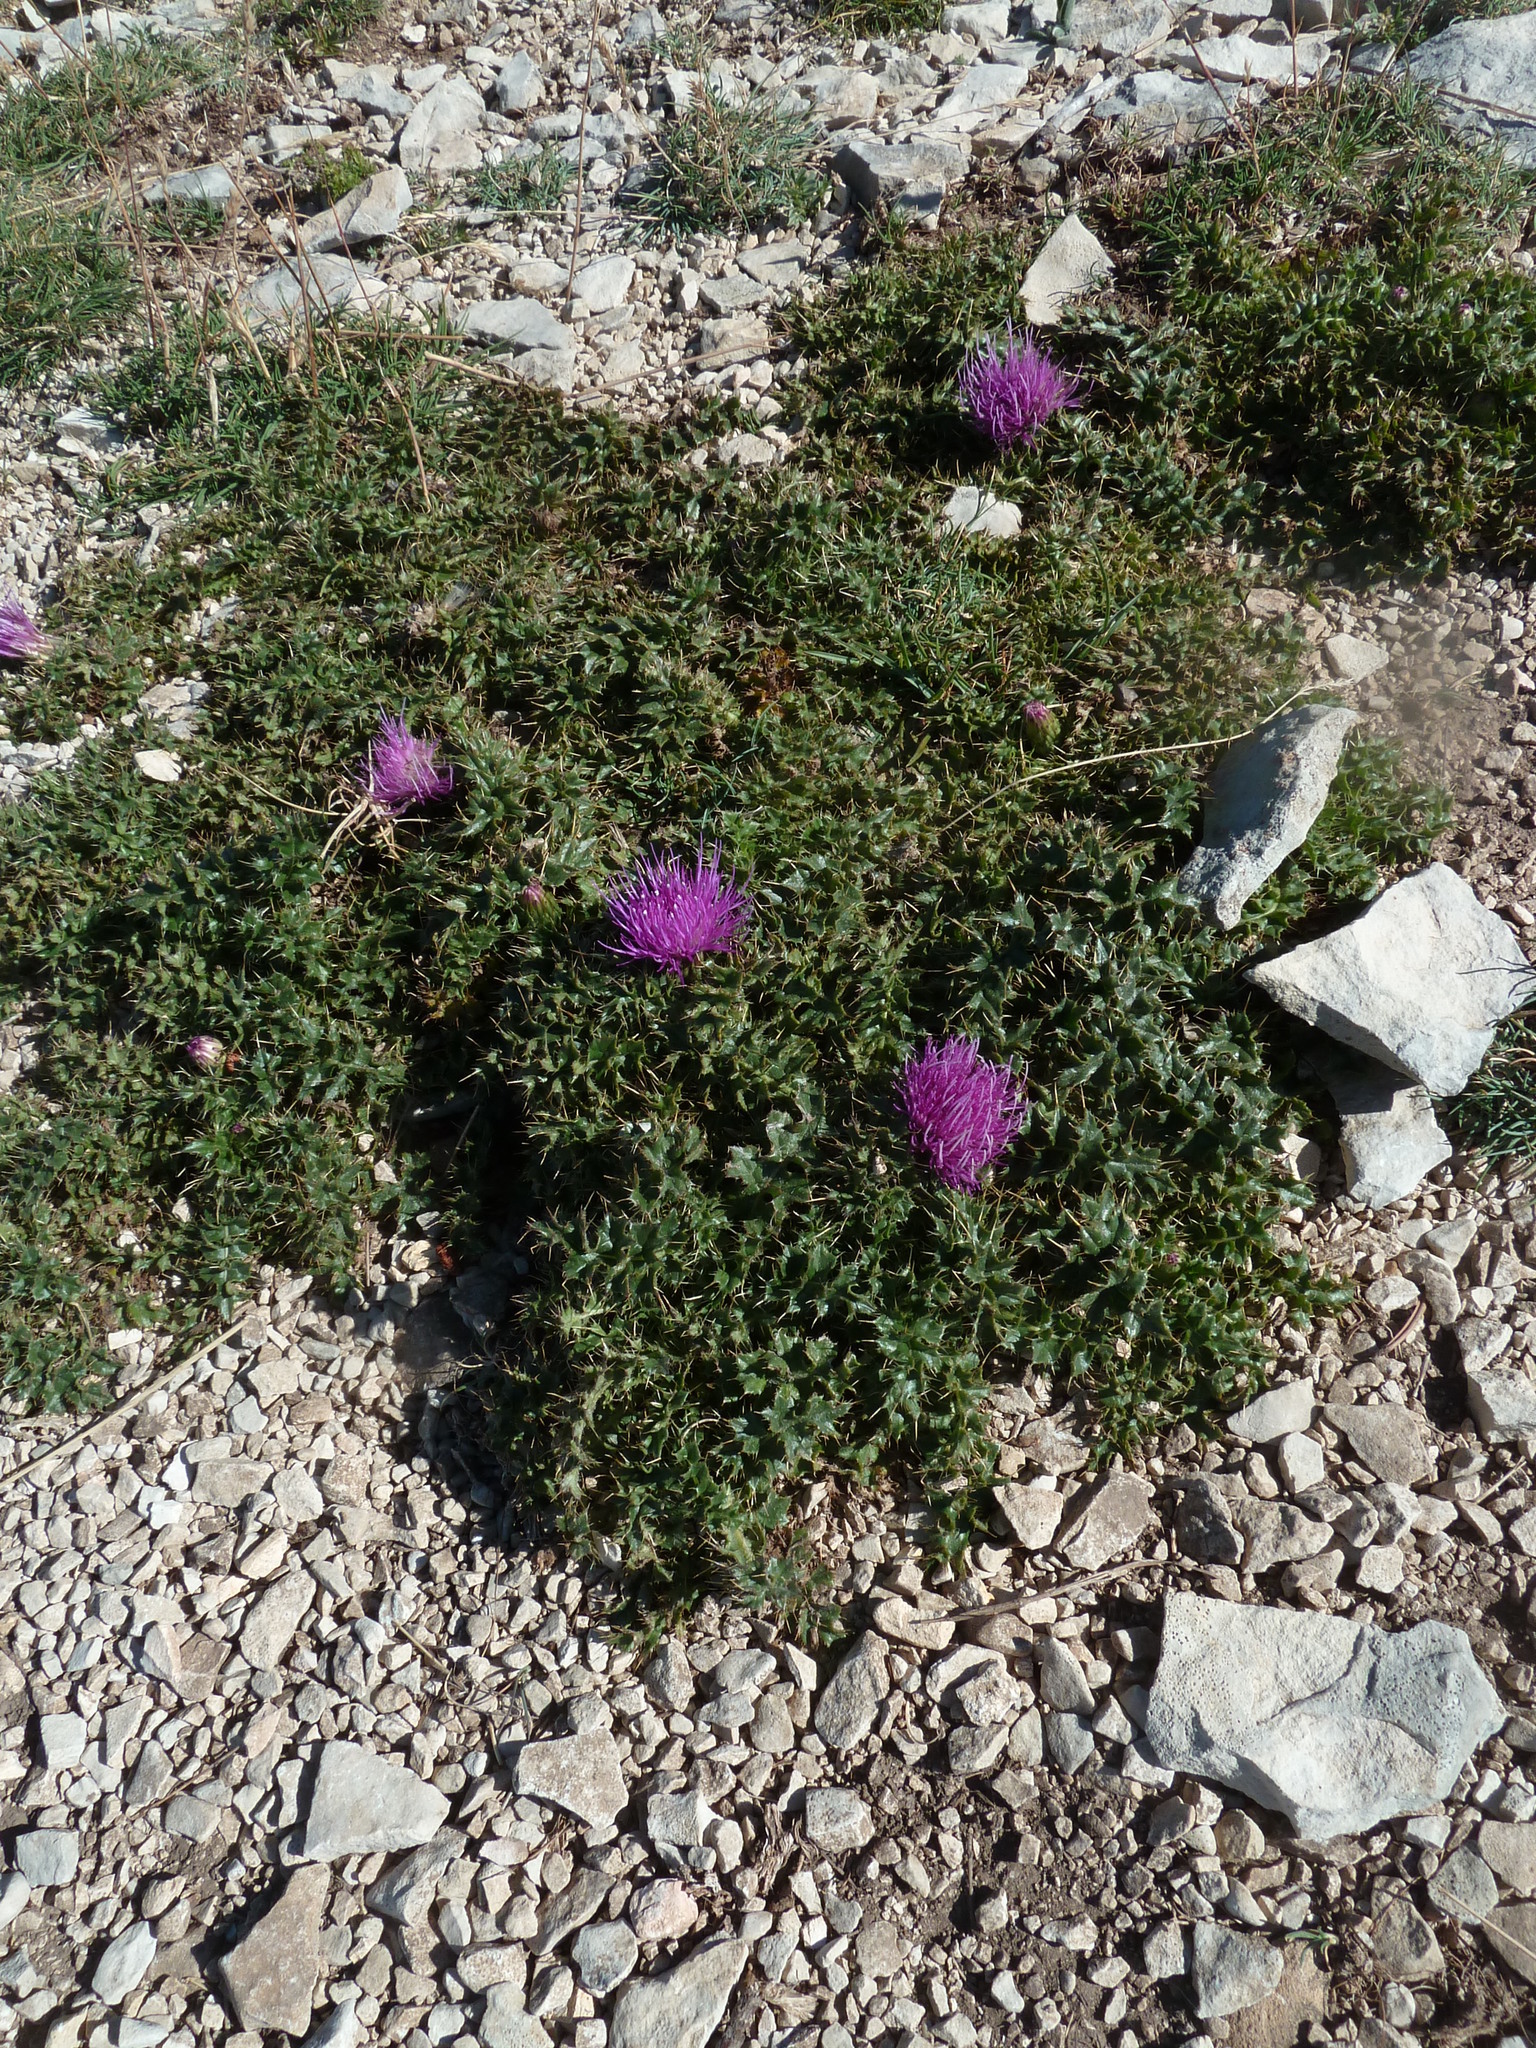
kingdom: Plantae
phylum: Tracheophyta
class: Magnoliopsida
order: Asterales
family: Asteraceae
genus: Cirsium
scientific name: Cirsium acaulon
